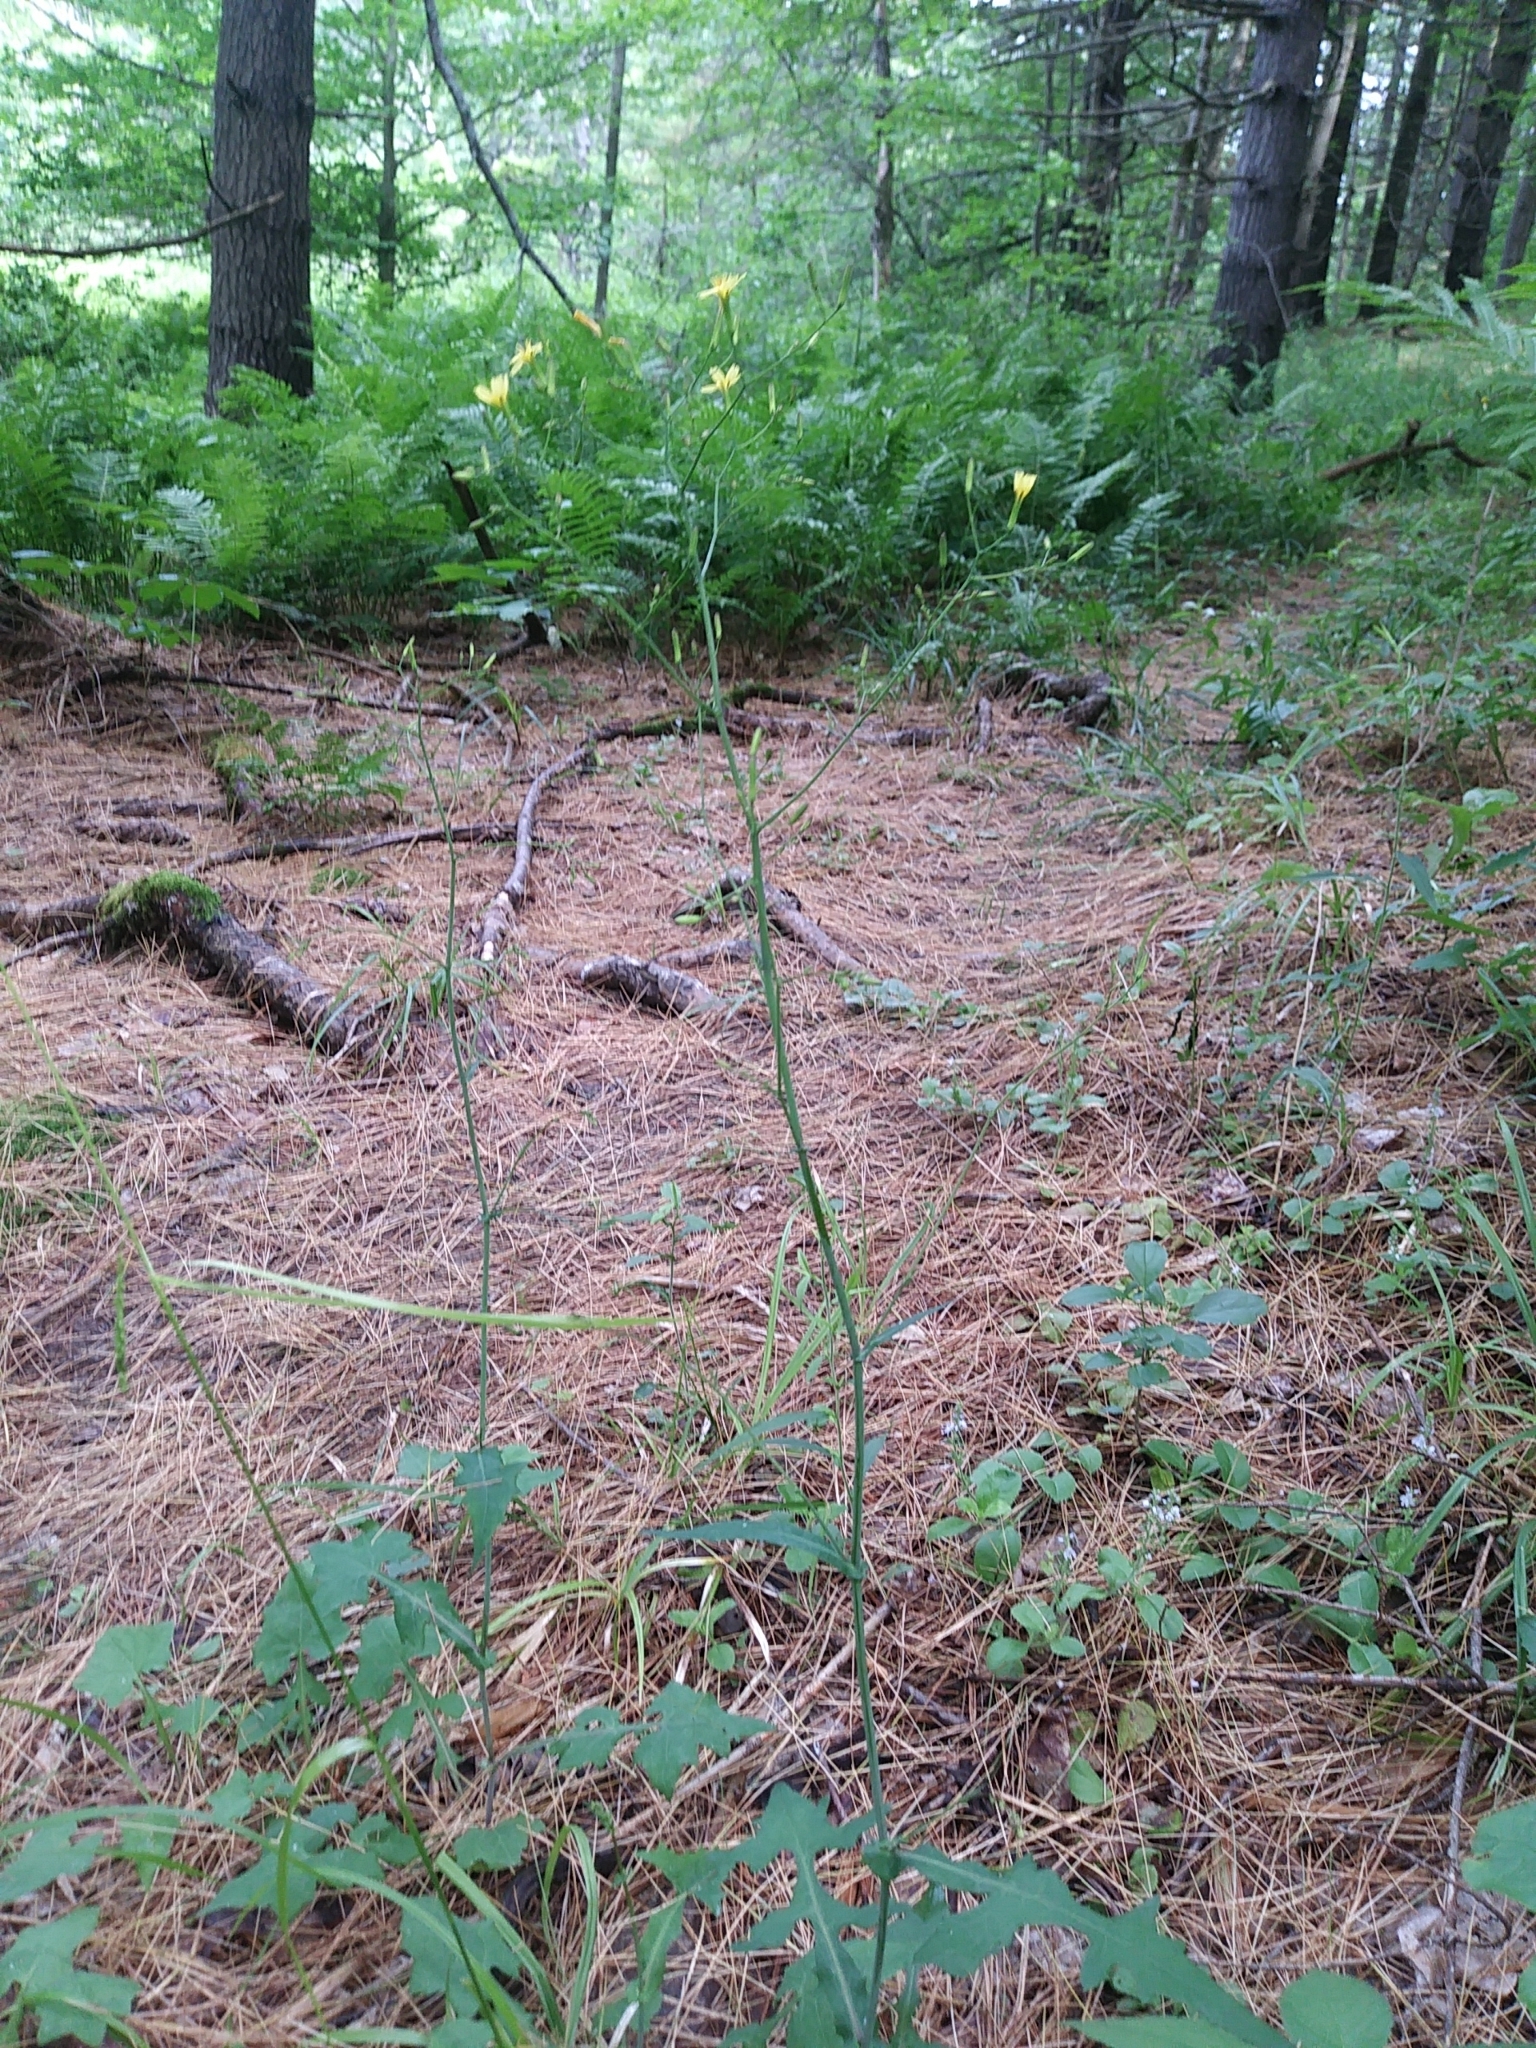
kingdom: Plantae
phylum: Tracheophyta
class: Magnoliopsida
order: Asterales
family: Asteraceae
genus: Mycelis
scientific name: Mycelis muralis
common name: Wall lettuce
